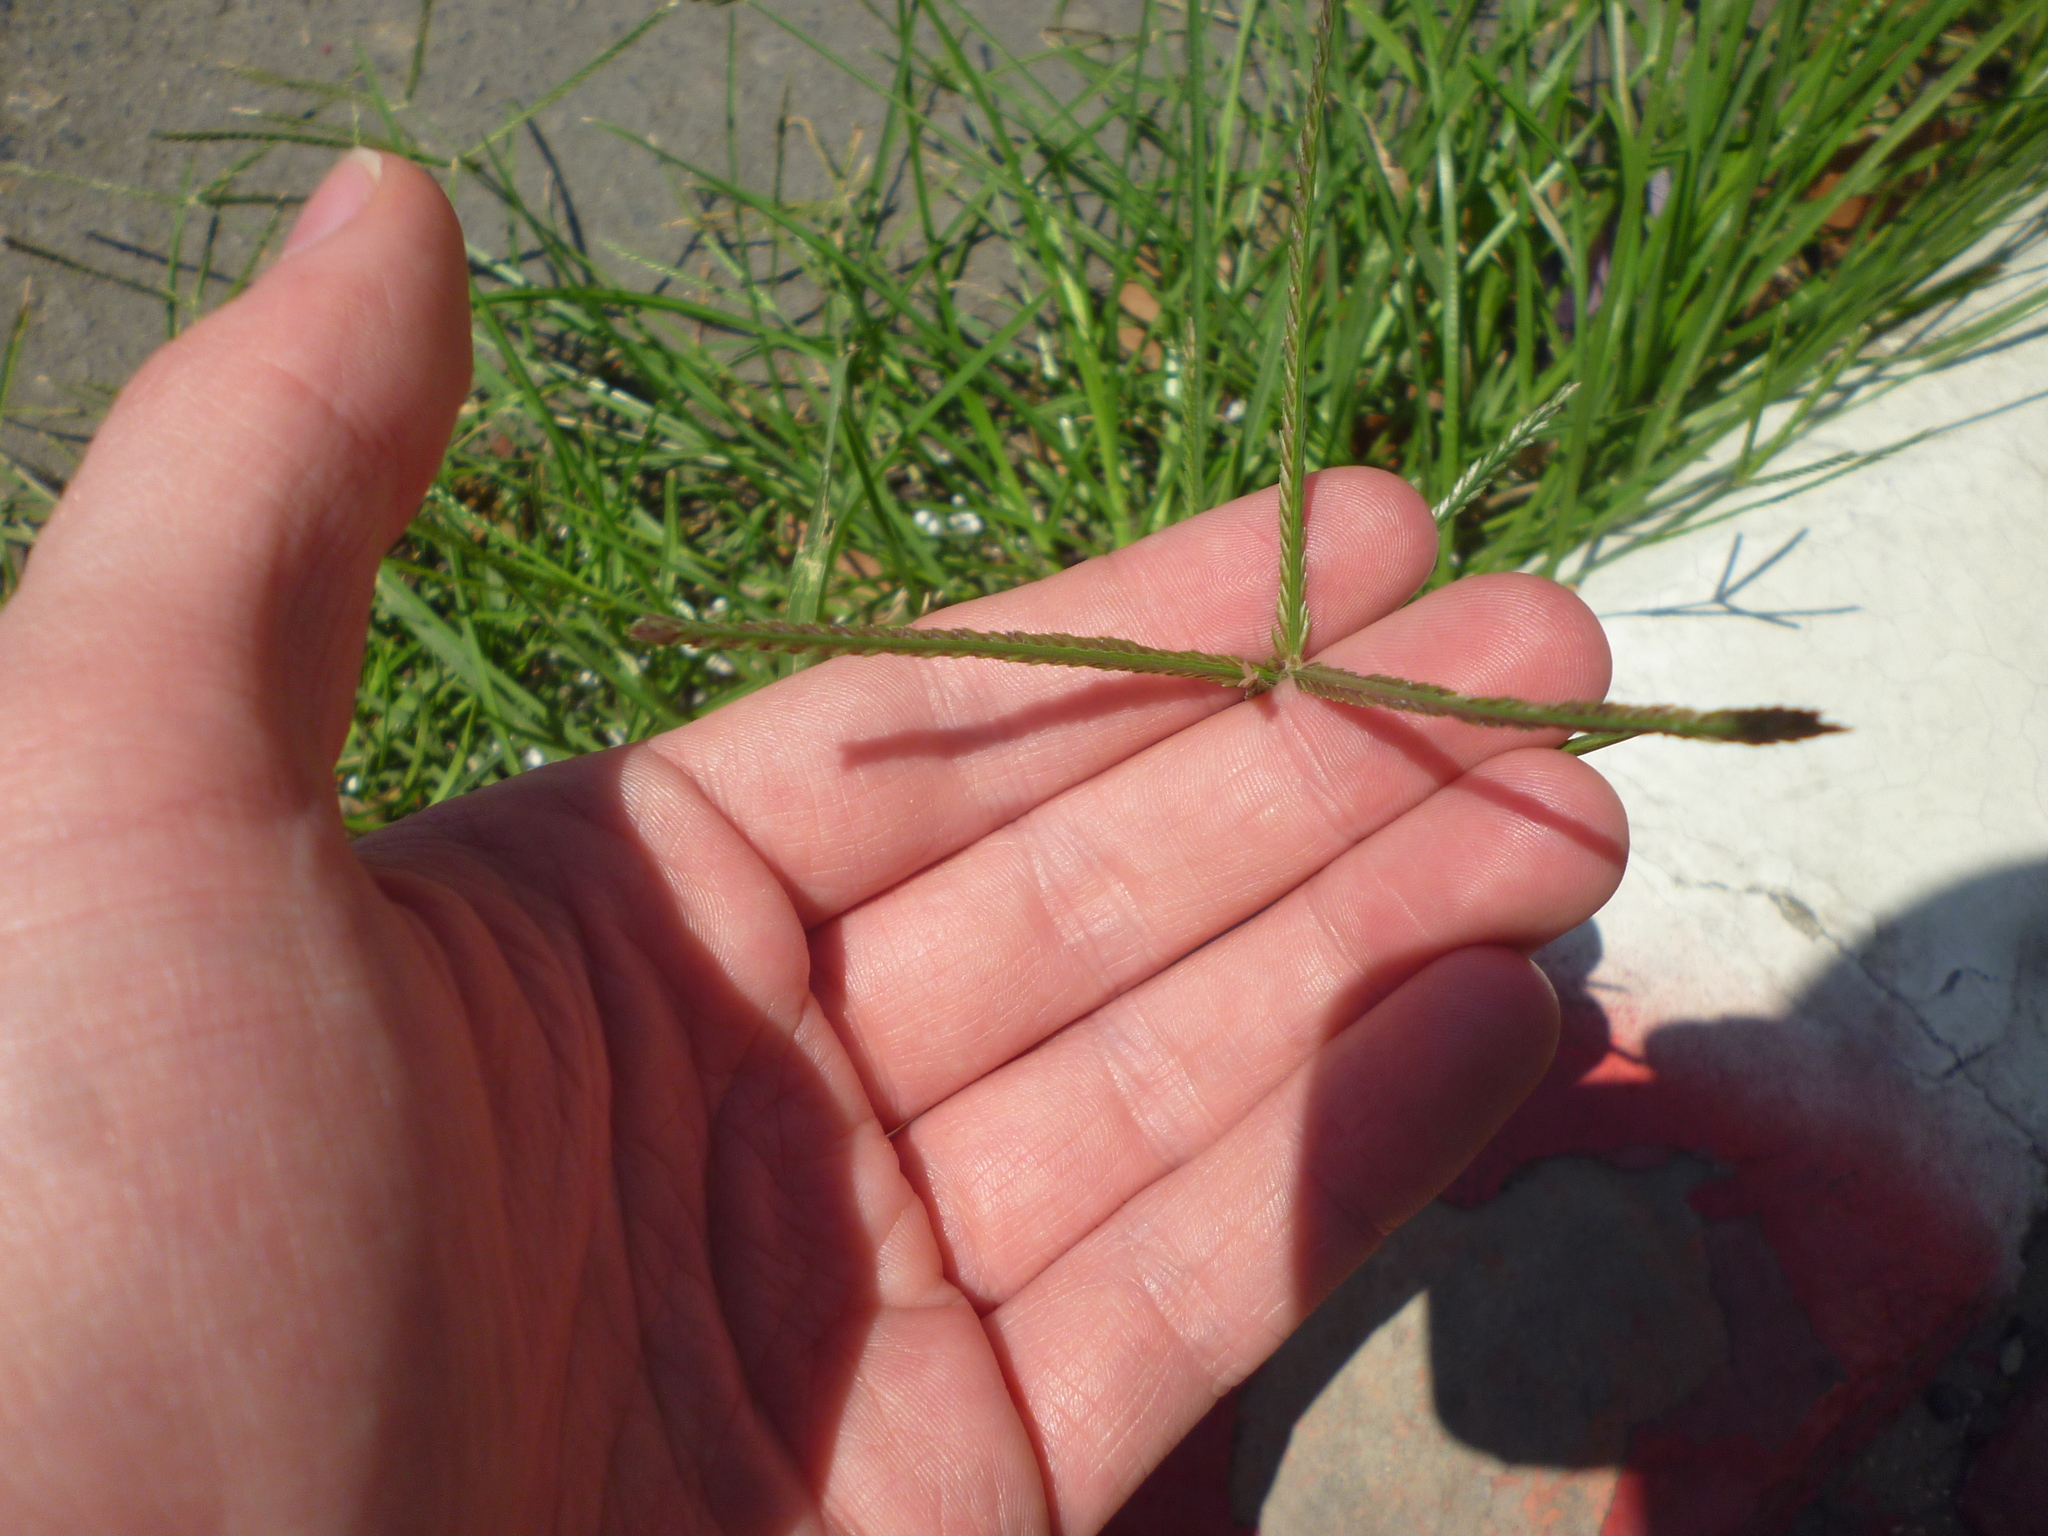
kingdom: Plantae
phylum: Tracheophyta
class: Liliopsida
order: Poales
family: Poaceae
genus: Cynodon
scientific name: Cynodon dactylon
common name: Bermuda grass
